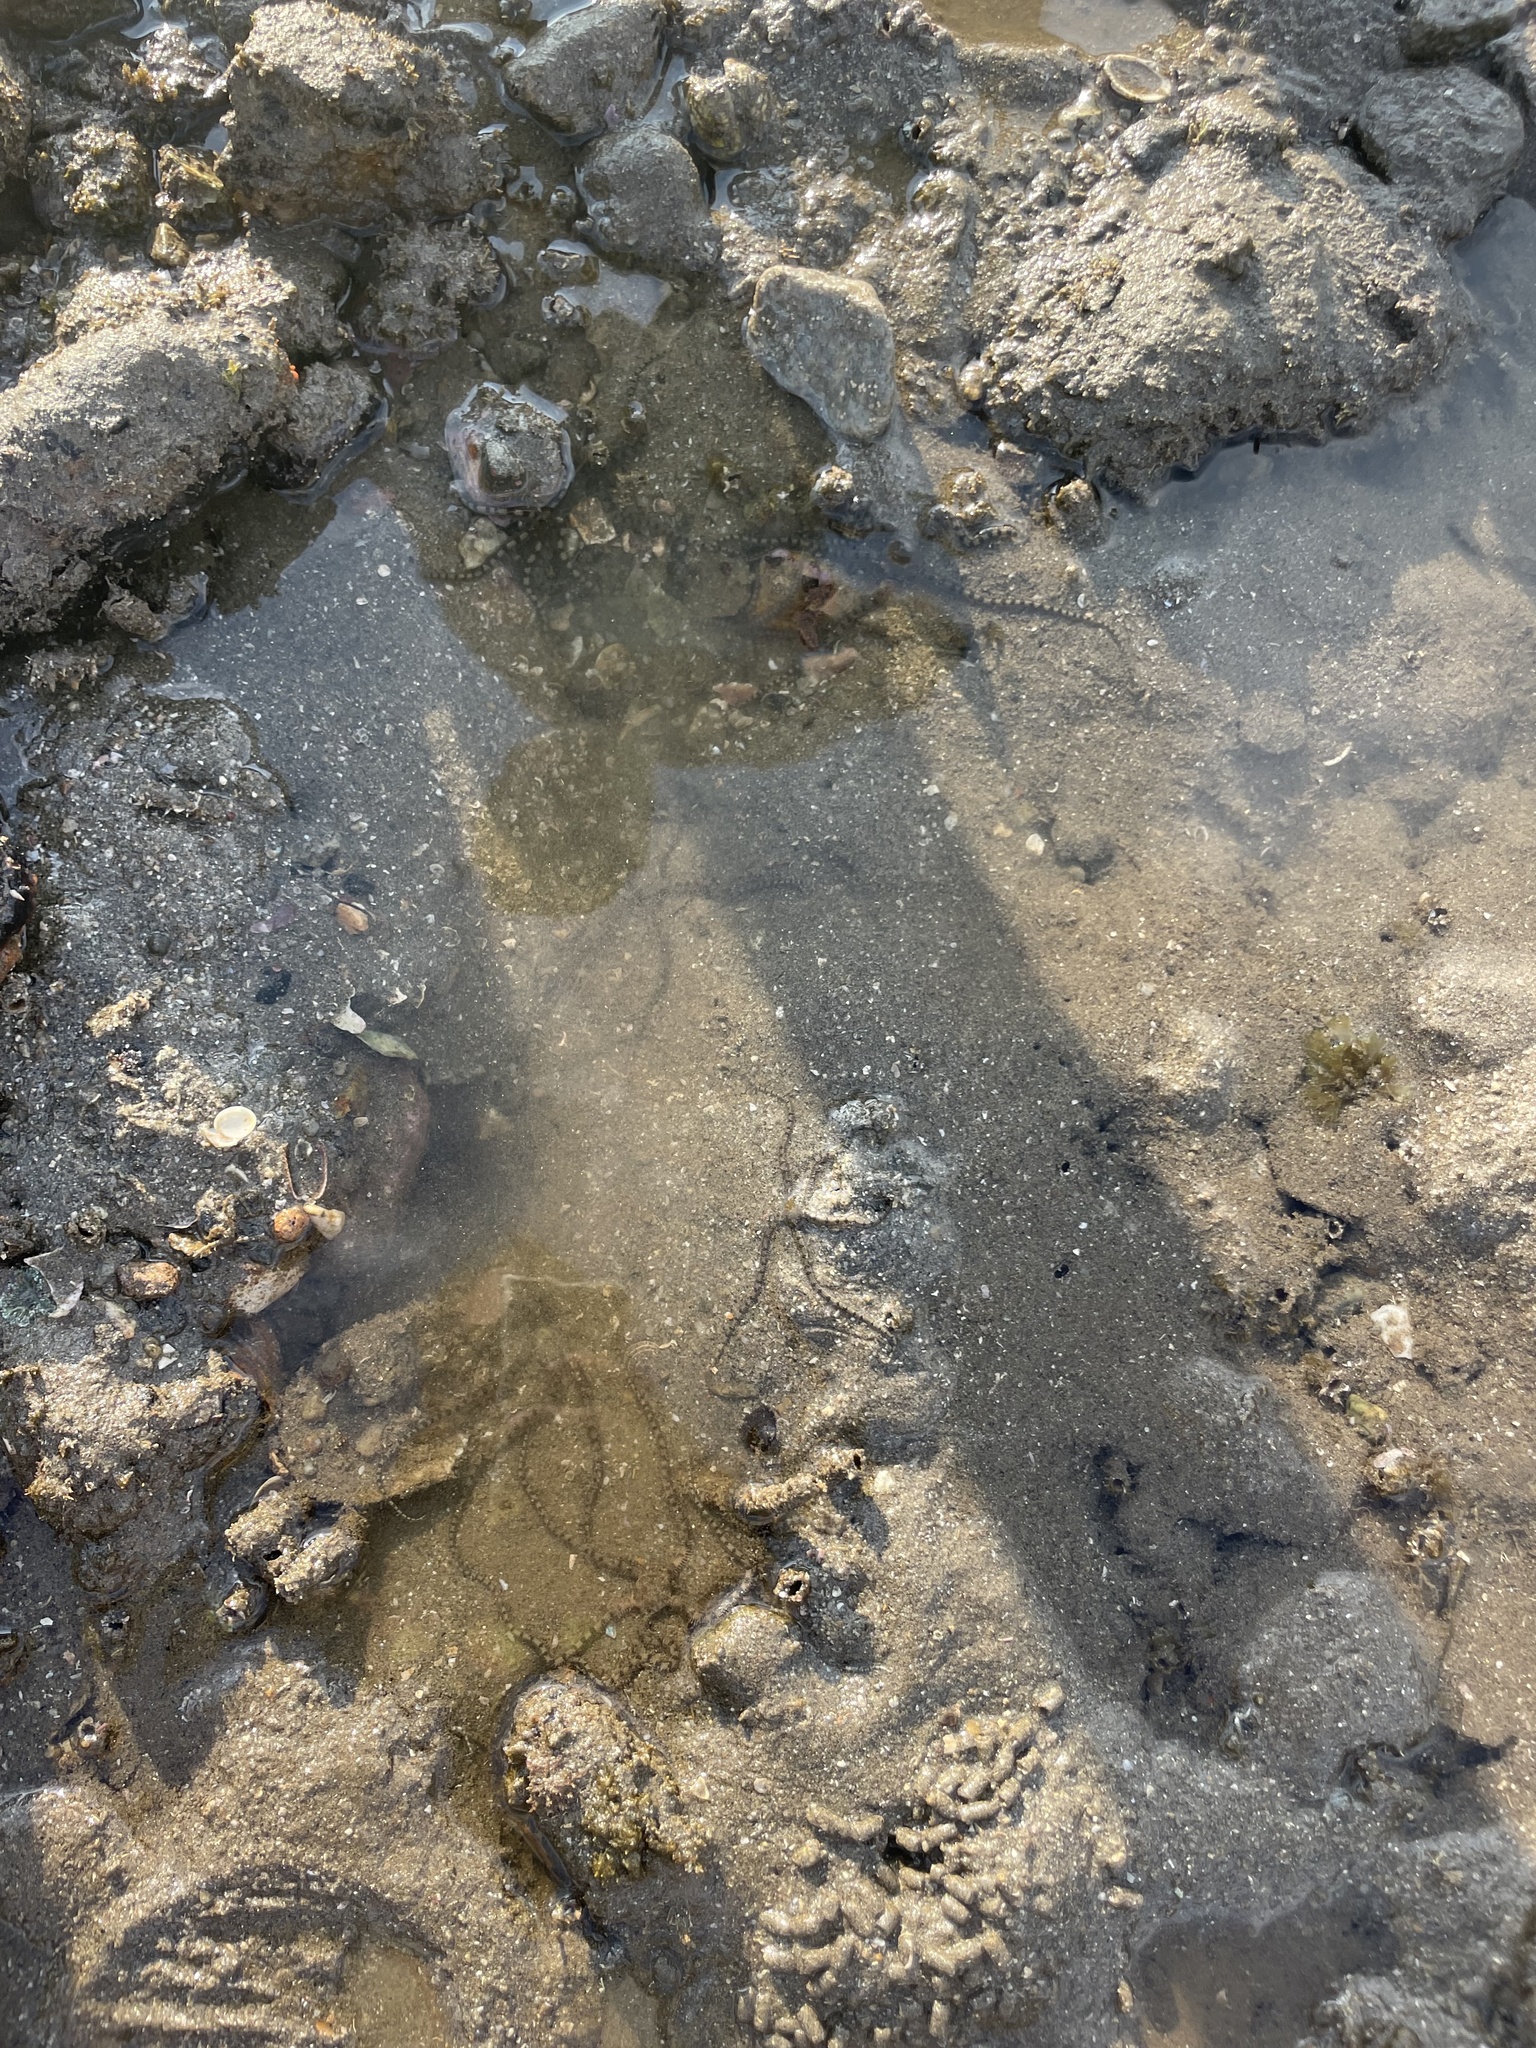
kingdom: Animalia
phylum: Echinodermata
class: Ophiuroidea
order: Amphilepidida
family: Ophionereididae
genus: Ophionereis
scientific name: Ophionereis annulata
